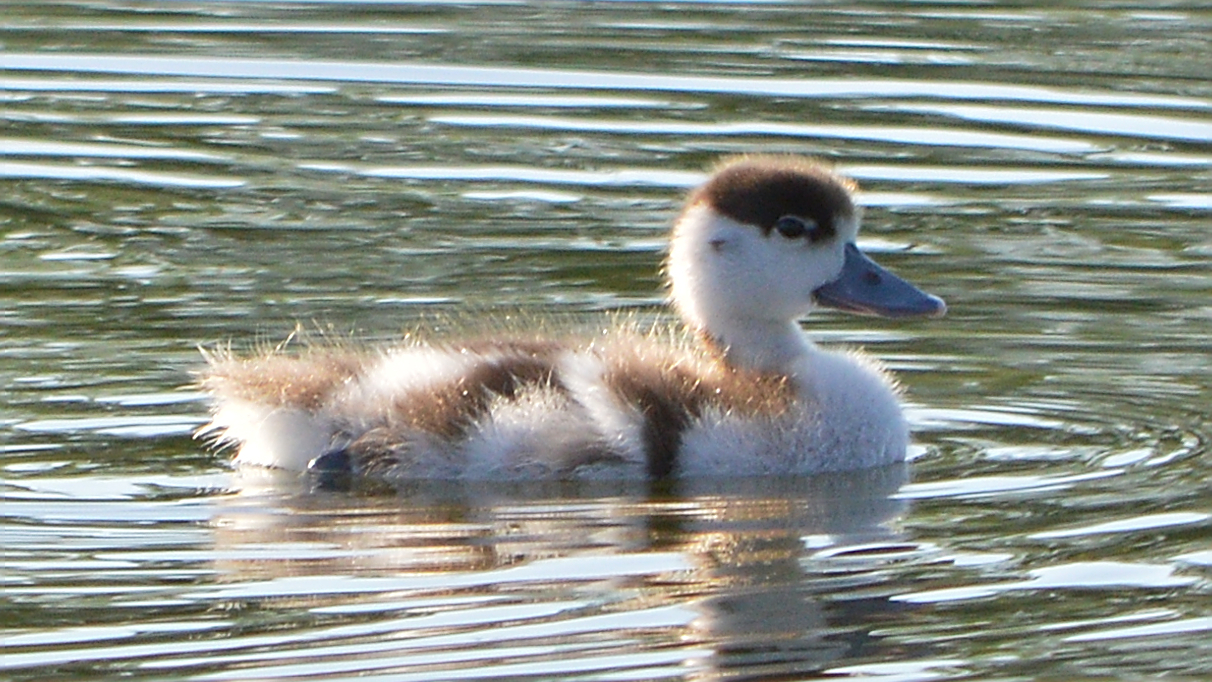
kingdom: Animalia
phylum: Chordata
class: Aves
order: Anseriformes
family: Anatidae
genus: Tadorna
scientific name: Tadorna tadorna
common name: Common shelduck
